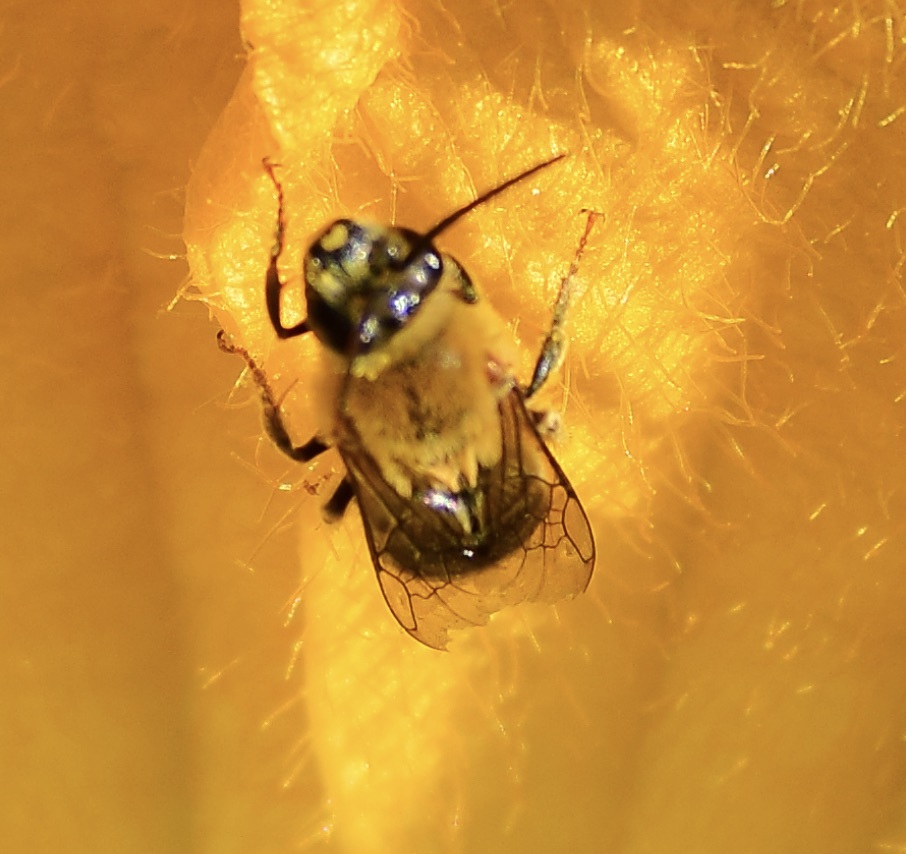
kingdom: Animalia
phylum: Arthropoda
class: Insecta
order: Hymenoptera
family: Apidae
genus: Peponapis
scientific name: Peponapis pruinosa
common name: Pruinose squash bee
